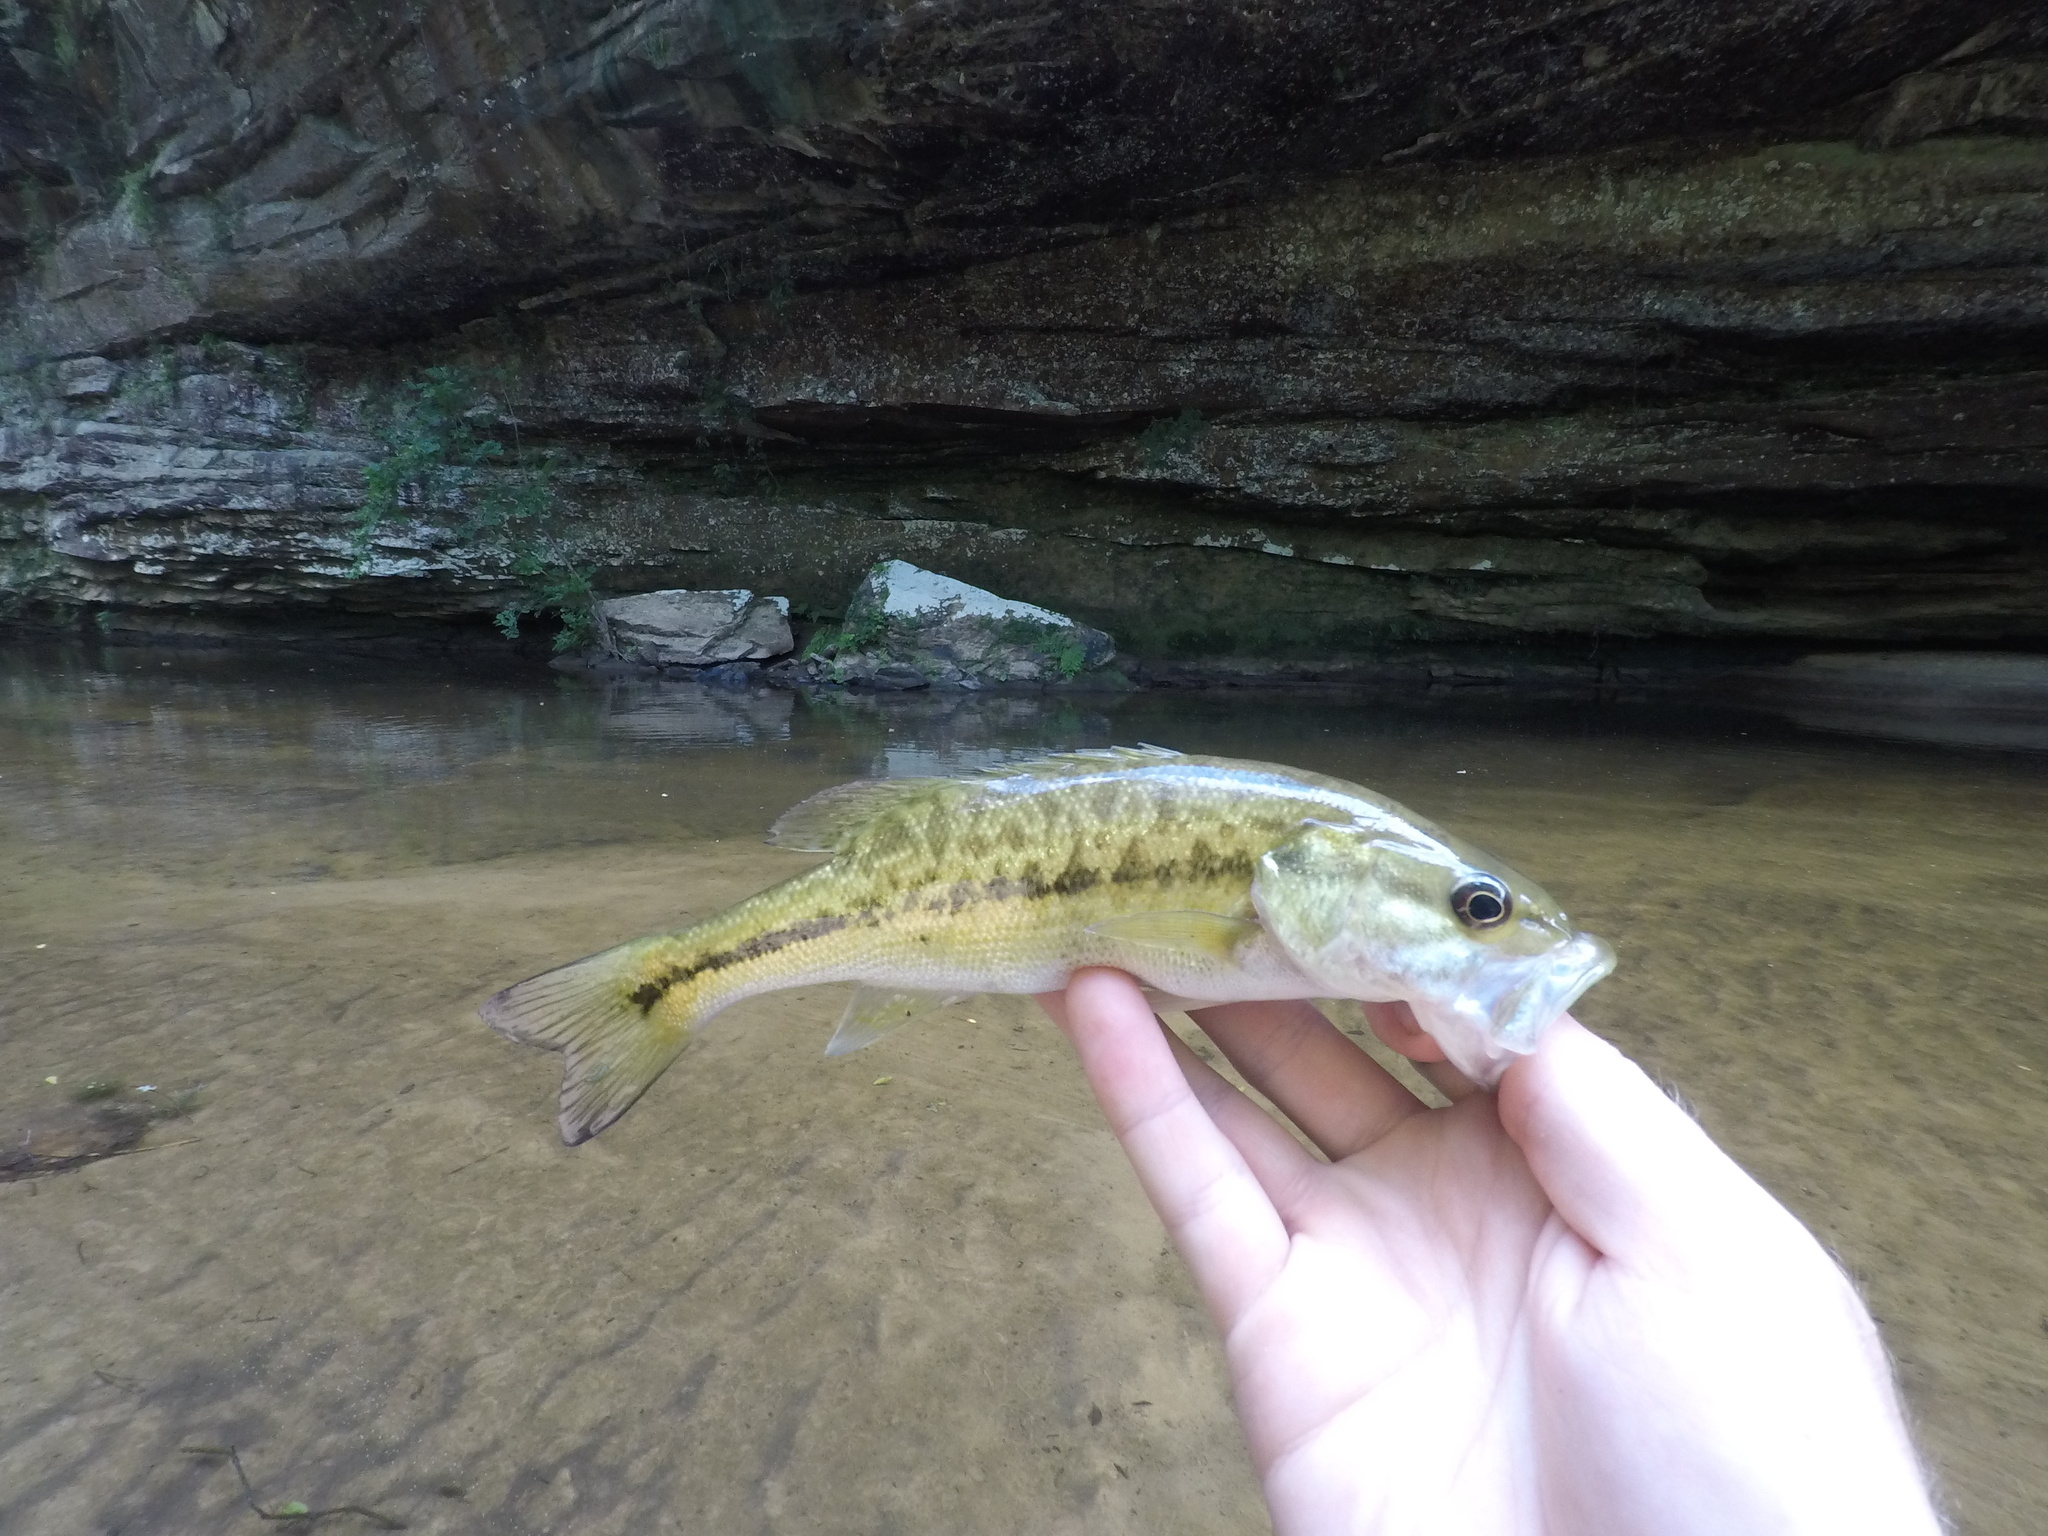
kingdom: Animalia
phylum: Chordata
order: Perciformes
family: Centrarchidae
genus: Micropterus
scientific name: Micropterus henshalli
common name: Alabama bass
